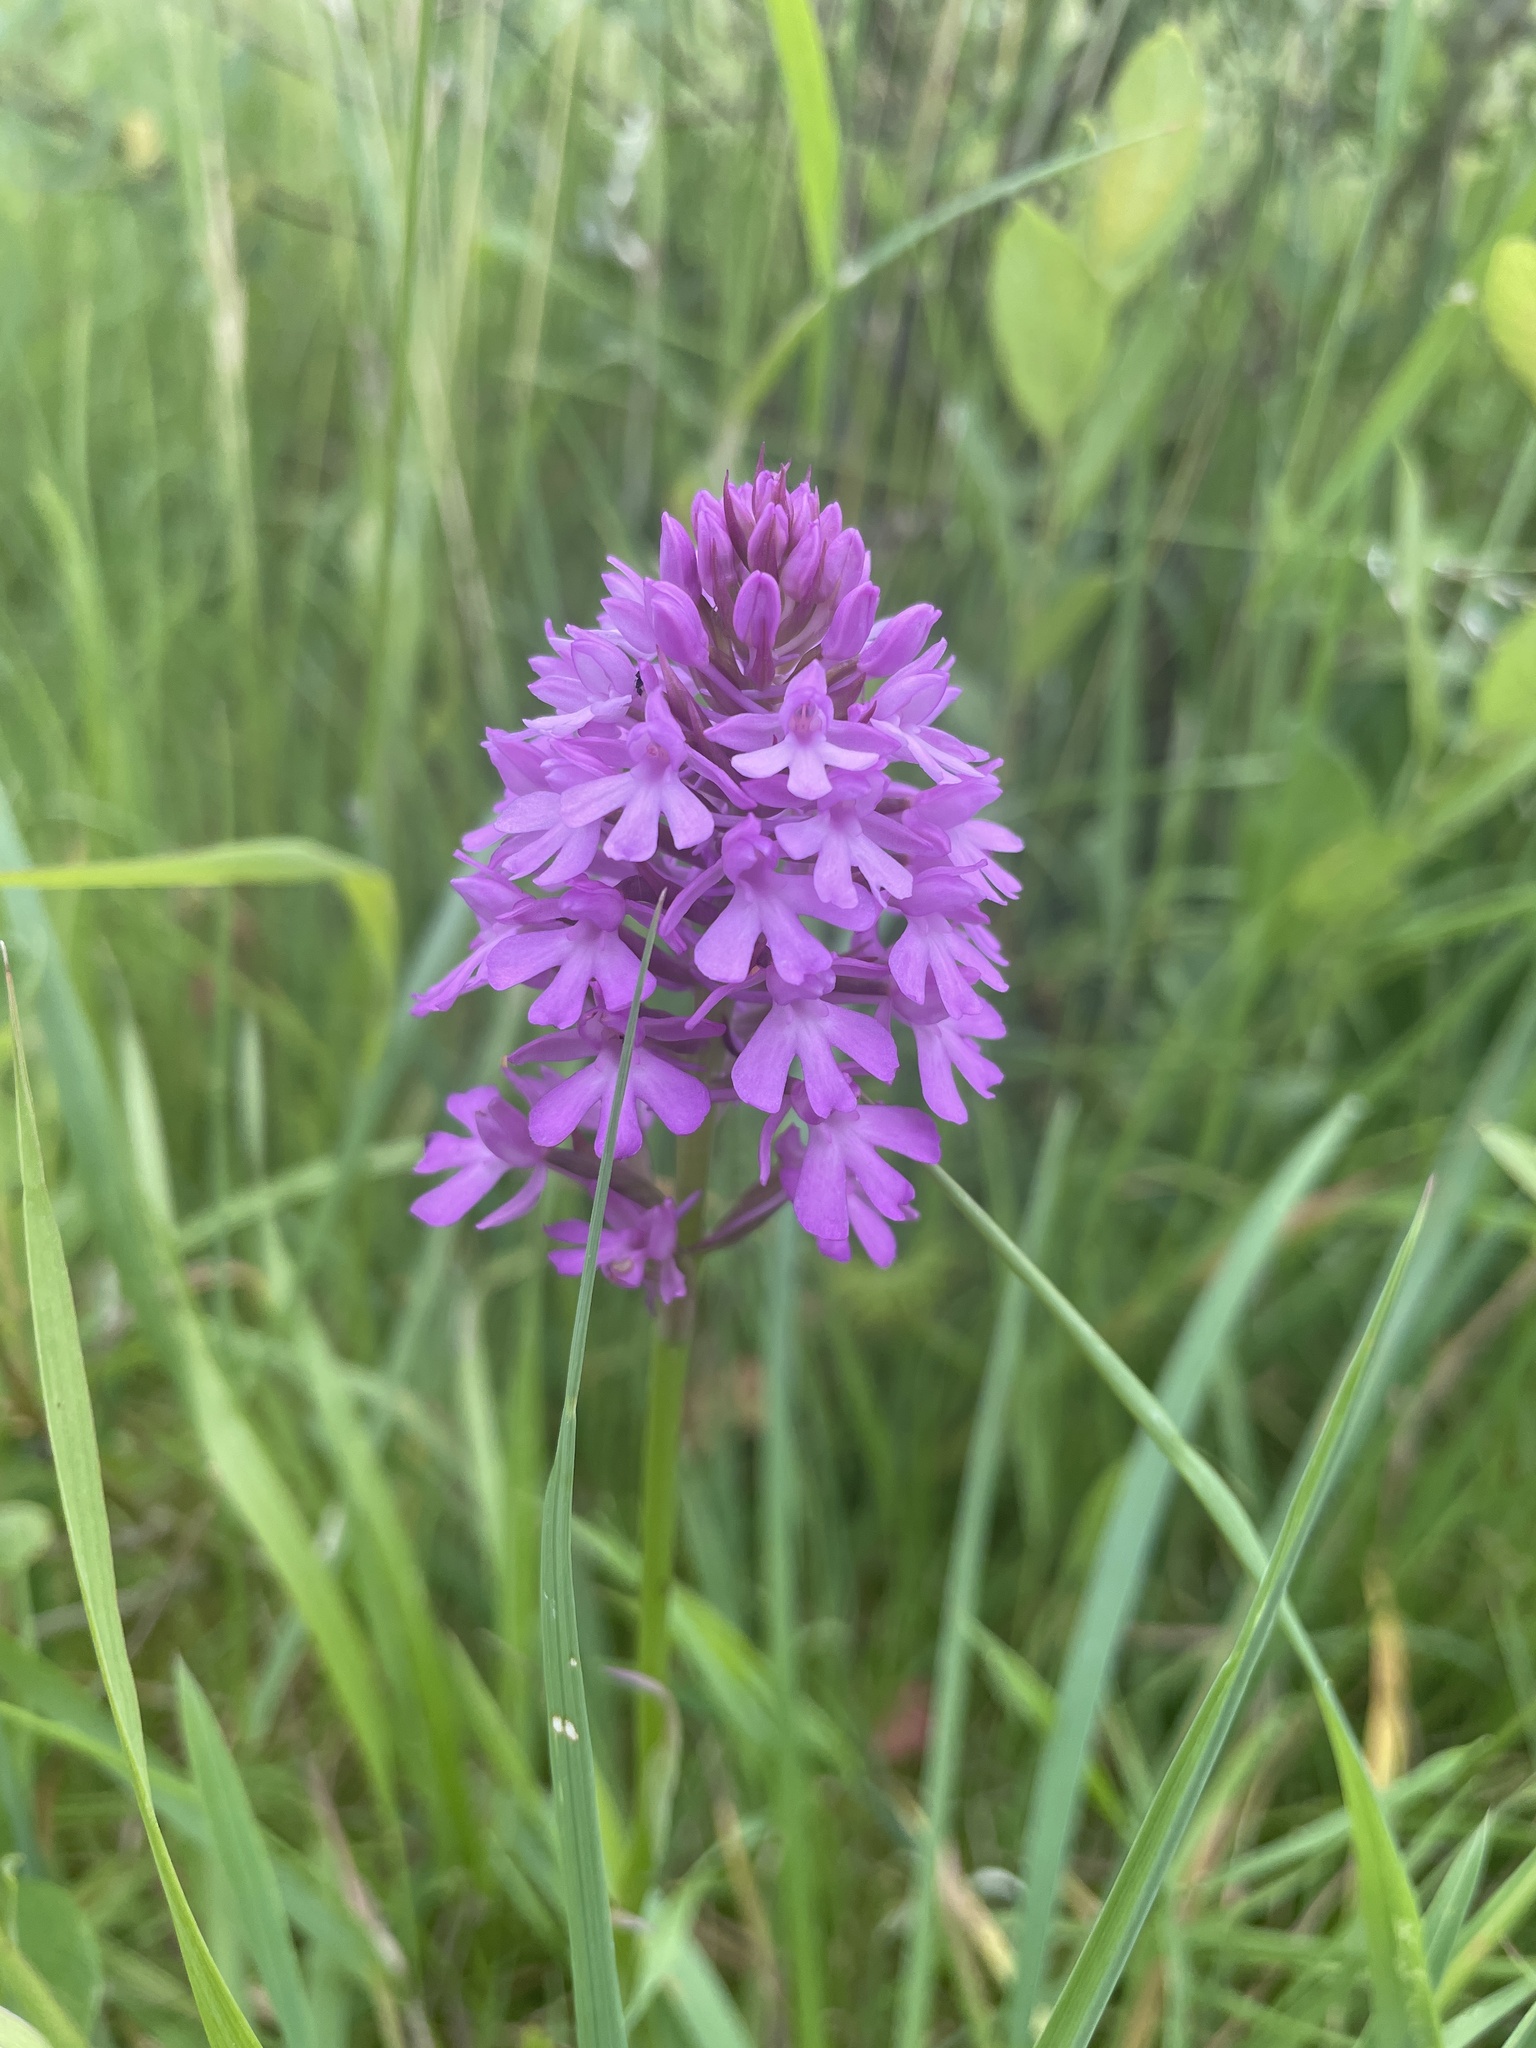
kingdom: Plantae
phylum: Tracheophyta
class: Liliopsida
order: Asparagales
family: Orchidaceae
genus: Anacamptis
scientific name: Anacamptis pyramidalis
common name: Pyramidal orchid
